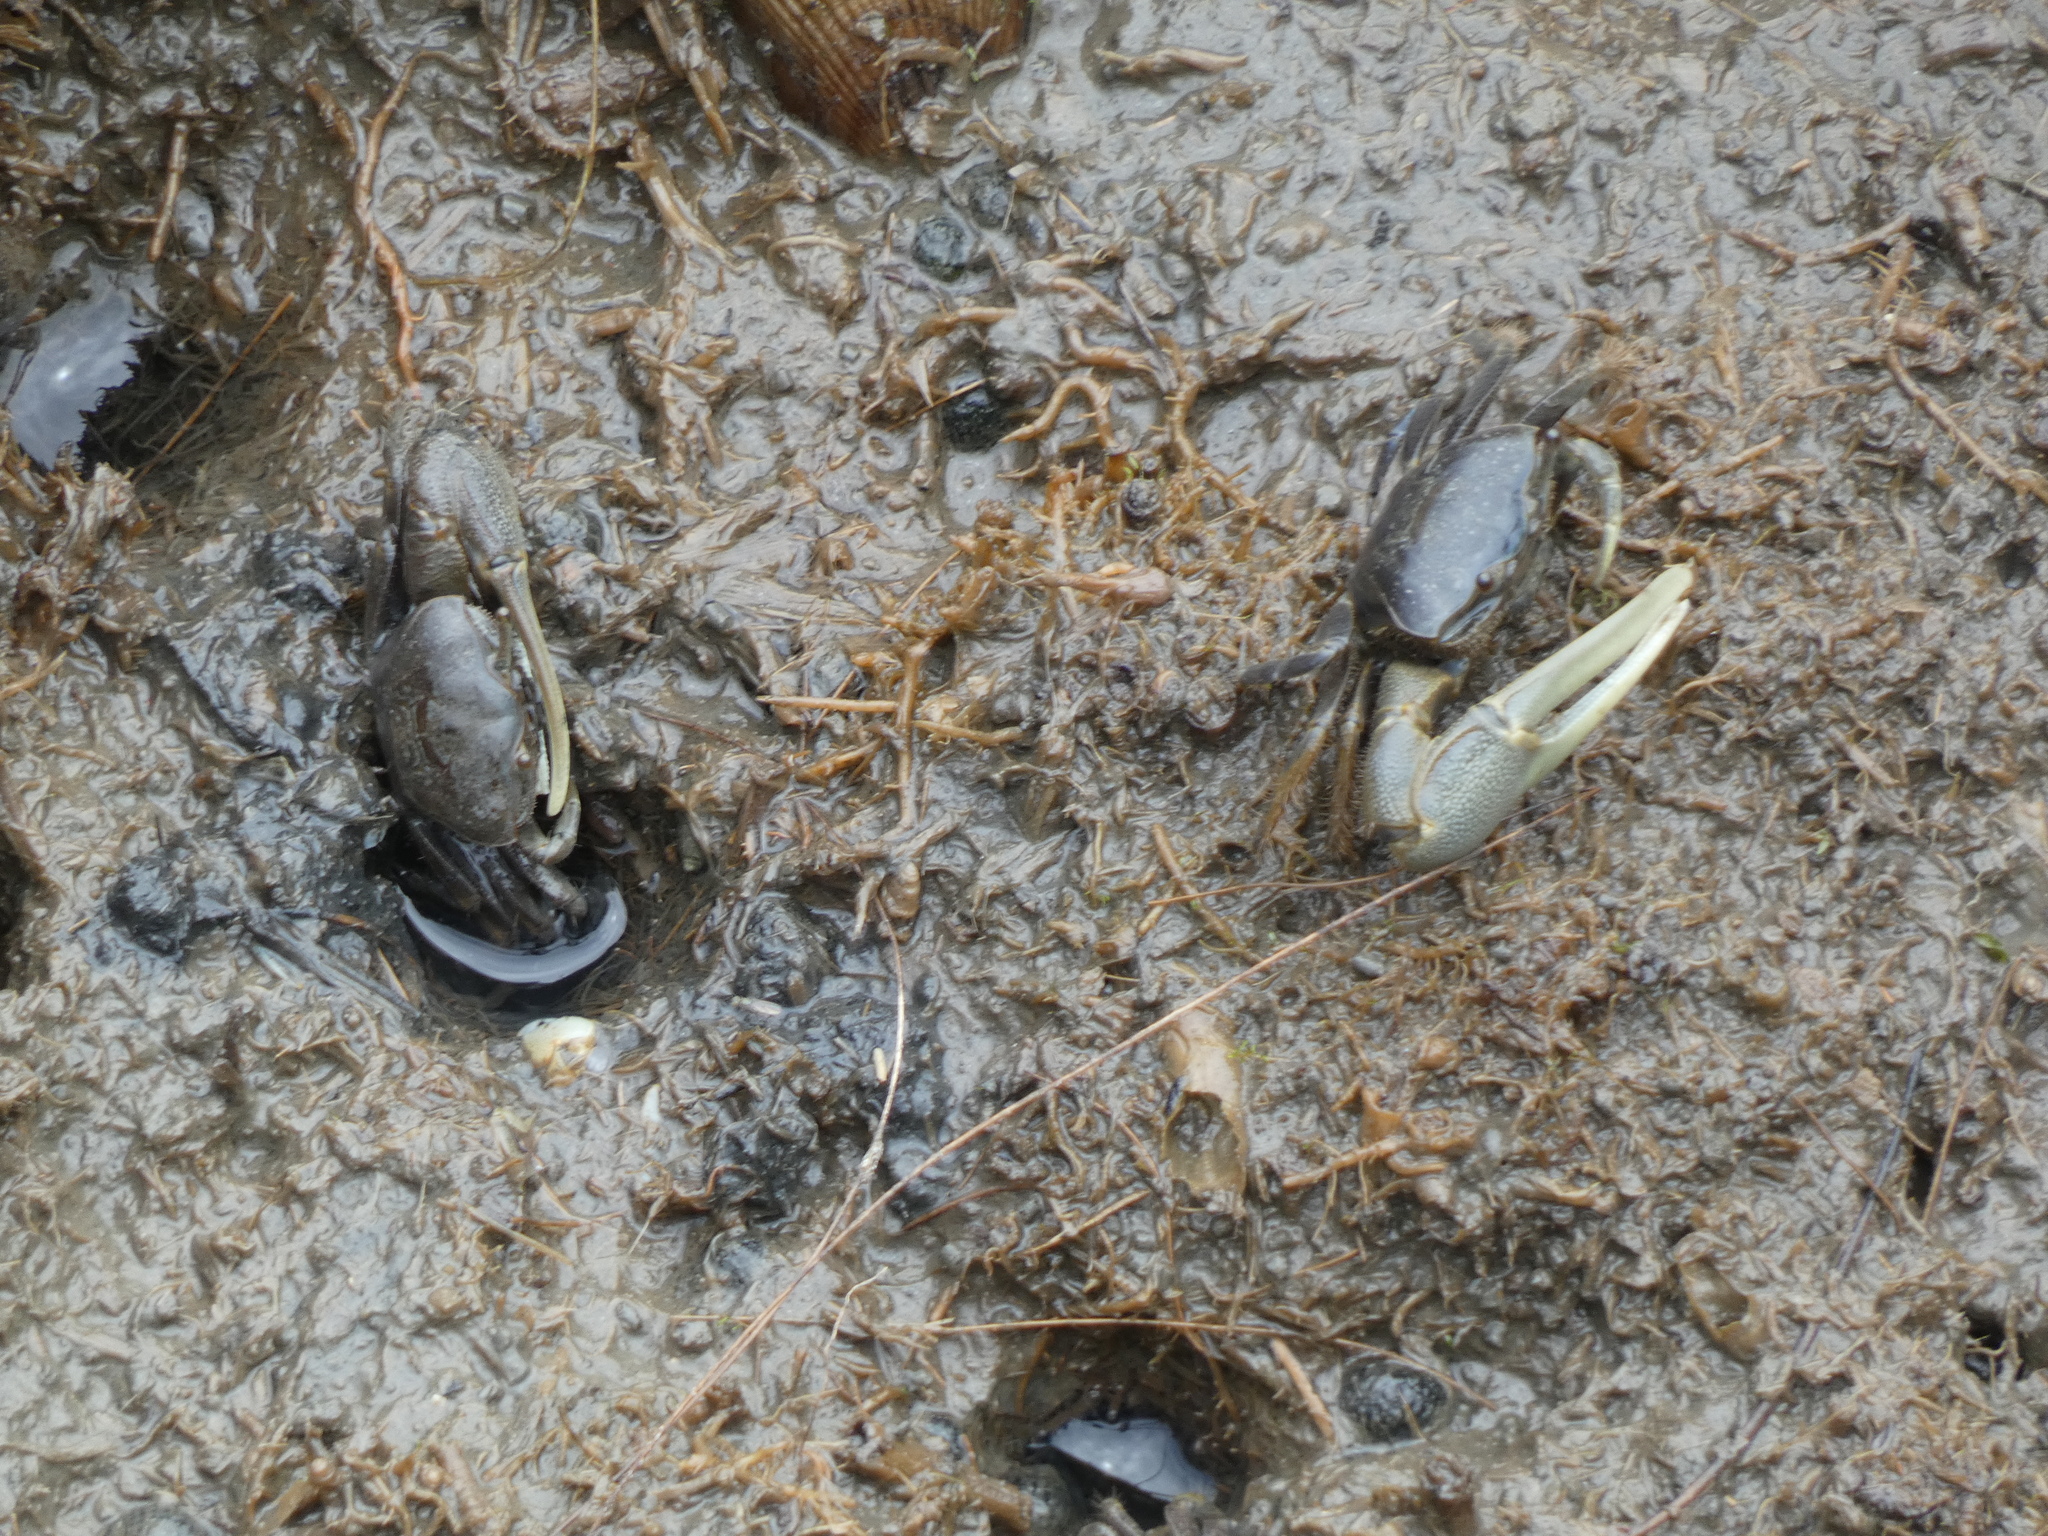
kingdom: Animalia
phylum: Arthropoda
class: Malacostraca
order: Decapoda
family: Ocypodidae
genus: Minuca
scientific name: Minuca pugnax
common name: Mud fiddler crab
